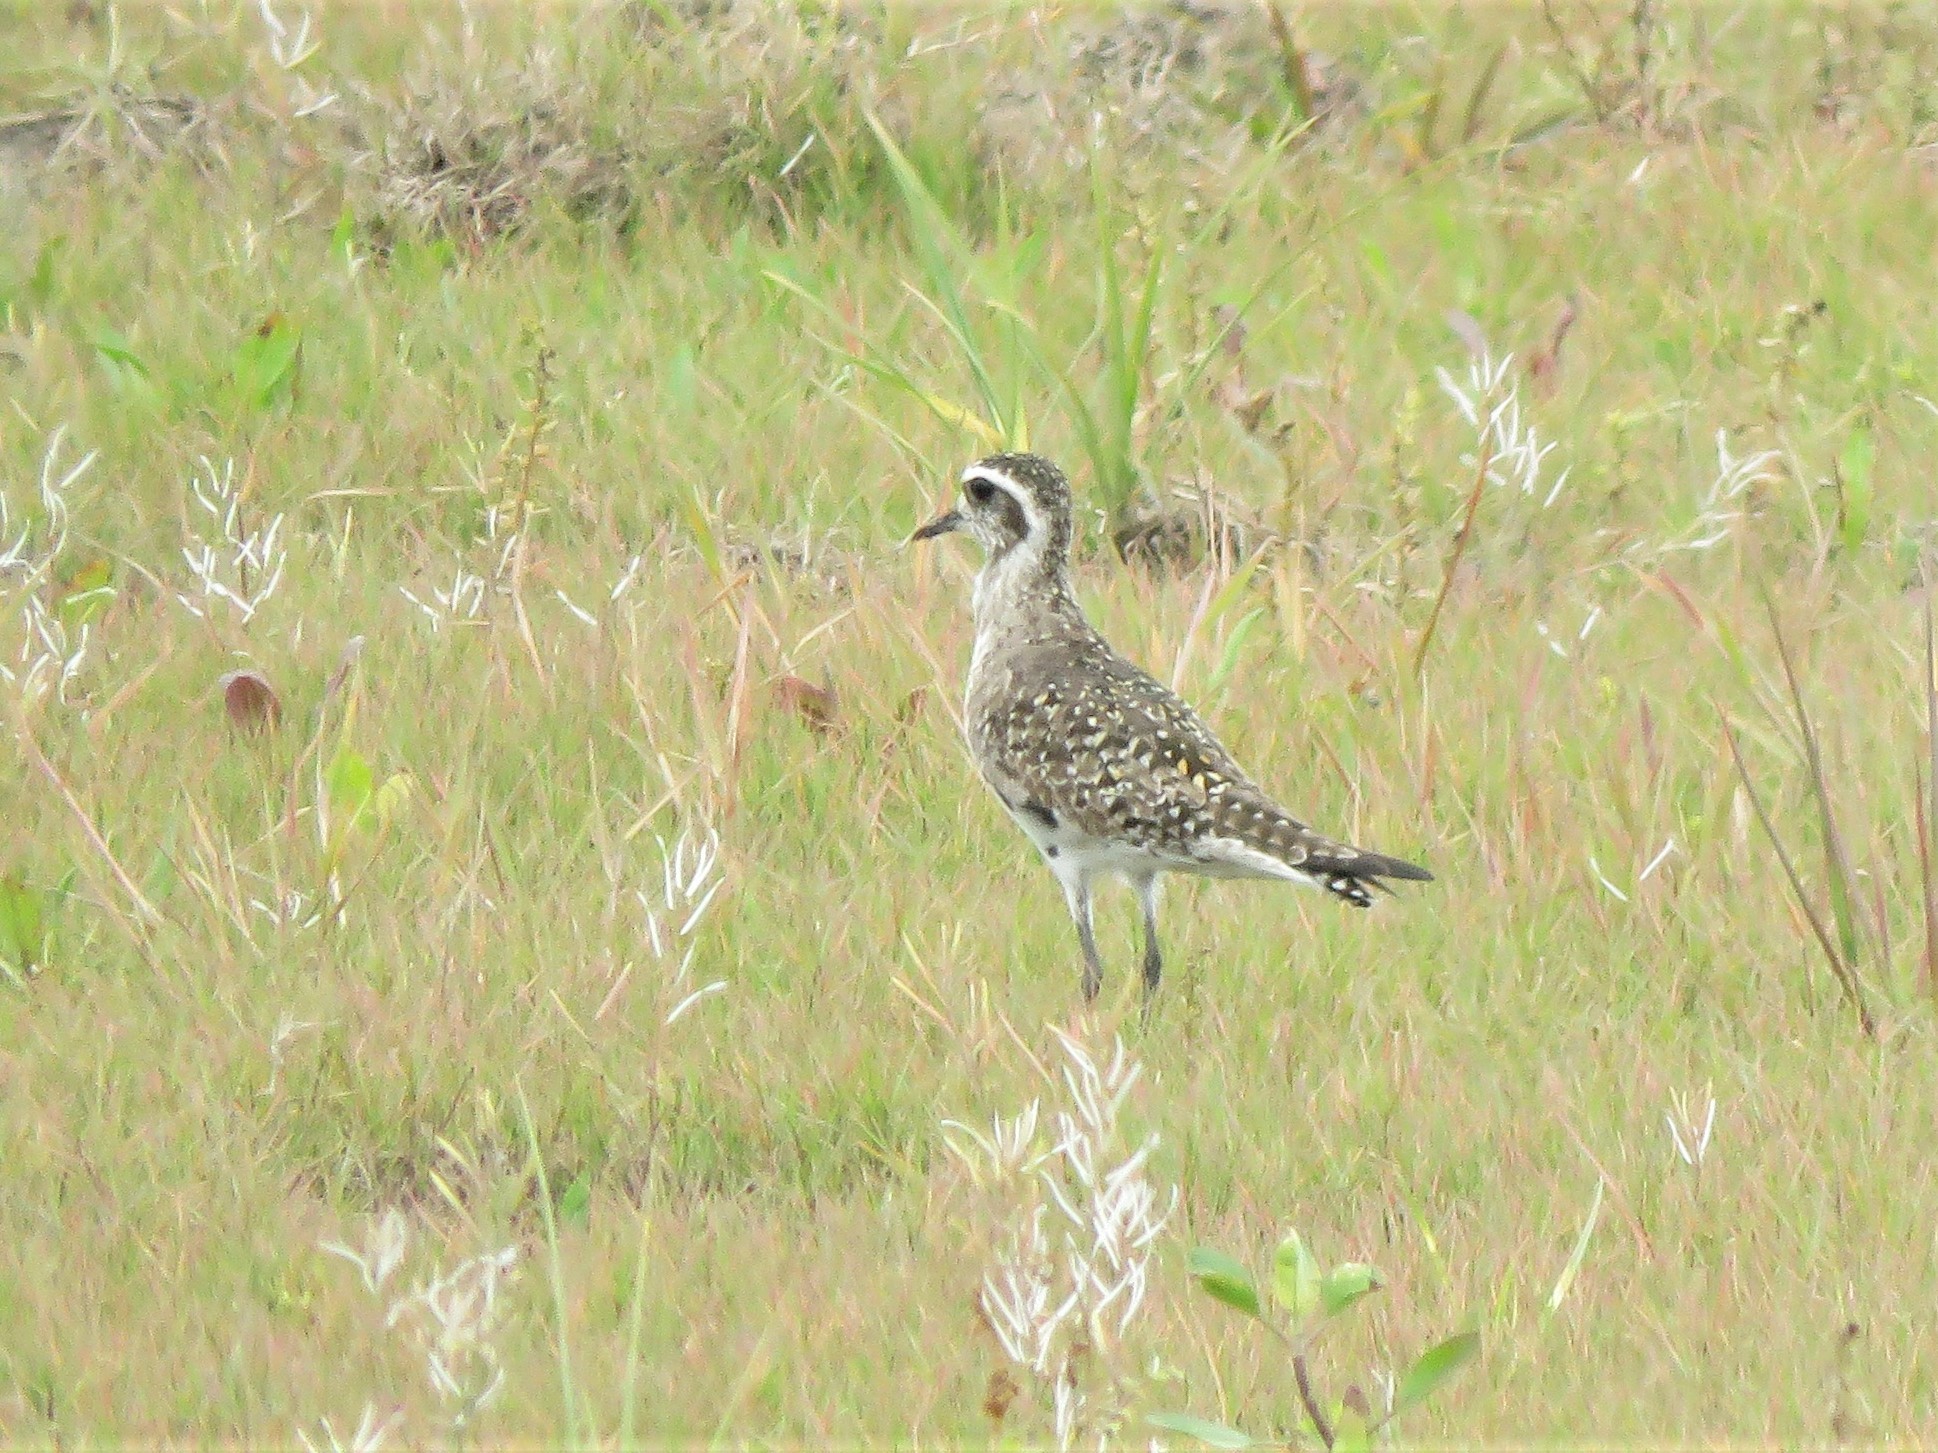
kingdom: Animalia
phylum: Chordata
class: Aves
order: Charadriiformes
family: Charadriidae
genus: Pluvialis
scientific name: Pluvialis dominica
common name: American golden plover
